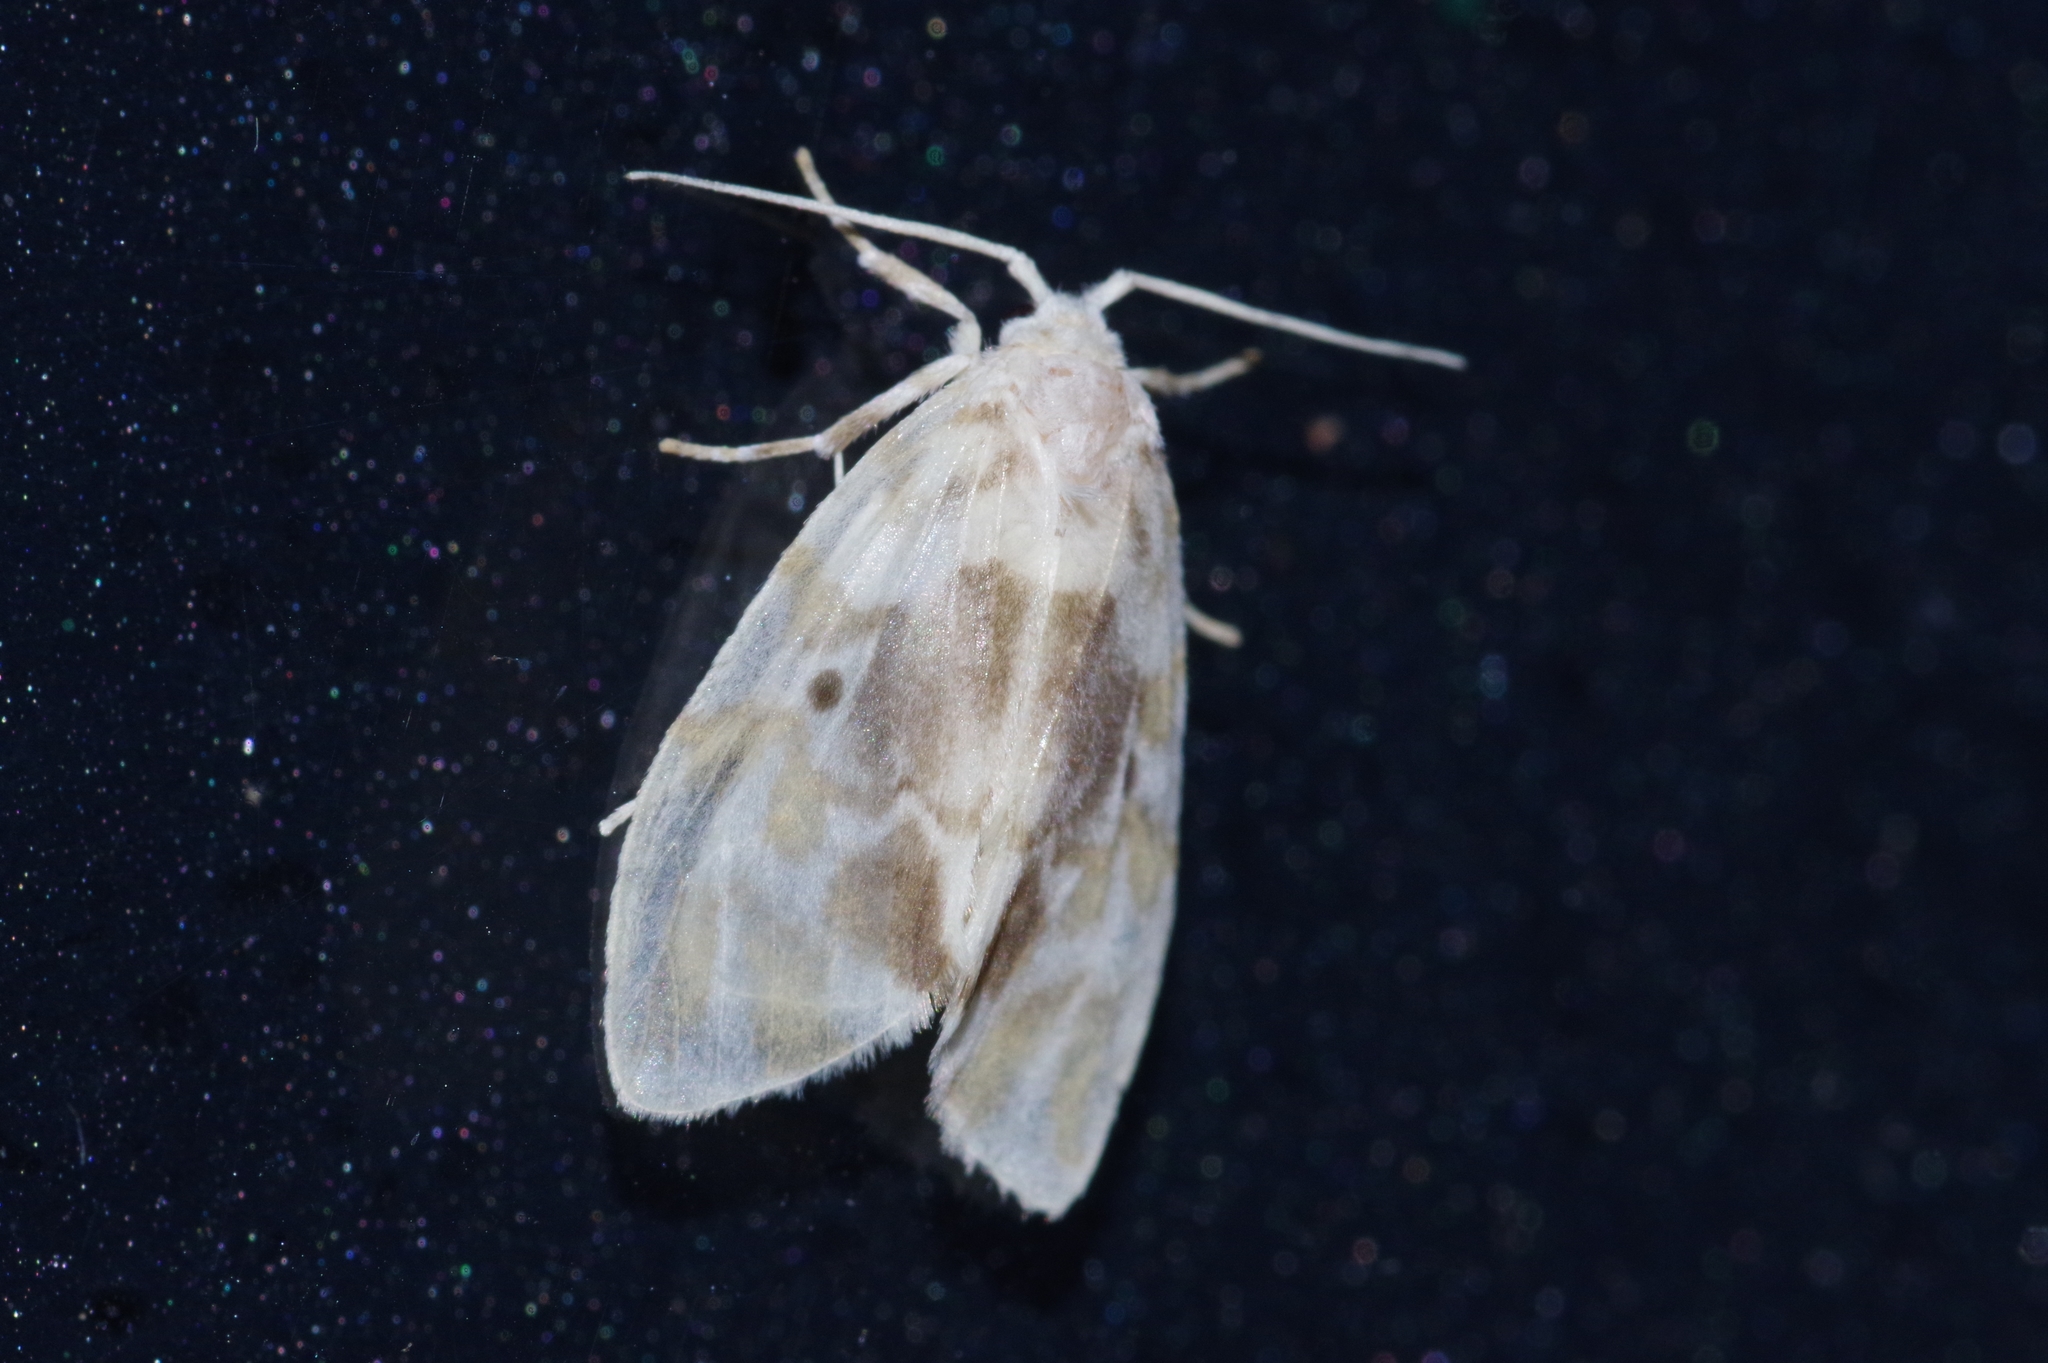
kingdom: Animalia
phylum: Arthropoda
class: Insecta
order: Lepidoptera
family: Erebidae
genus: Nudaria
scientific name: Nudaria ranruna
